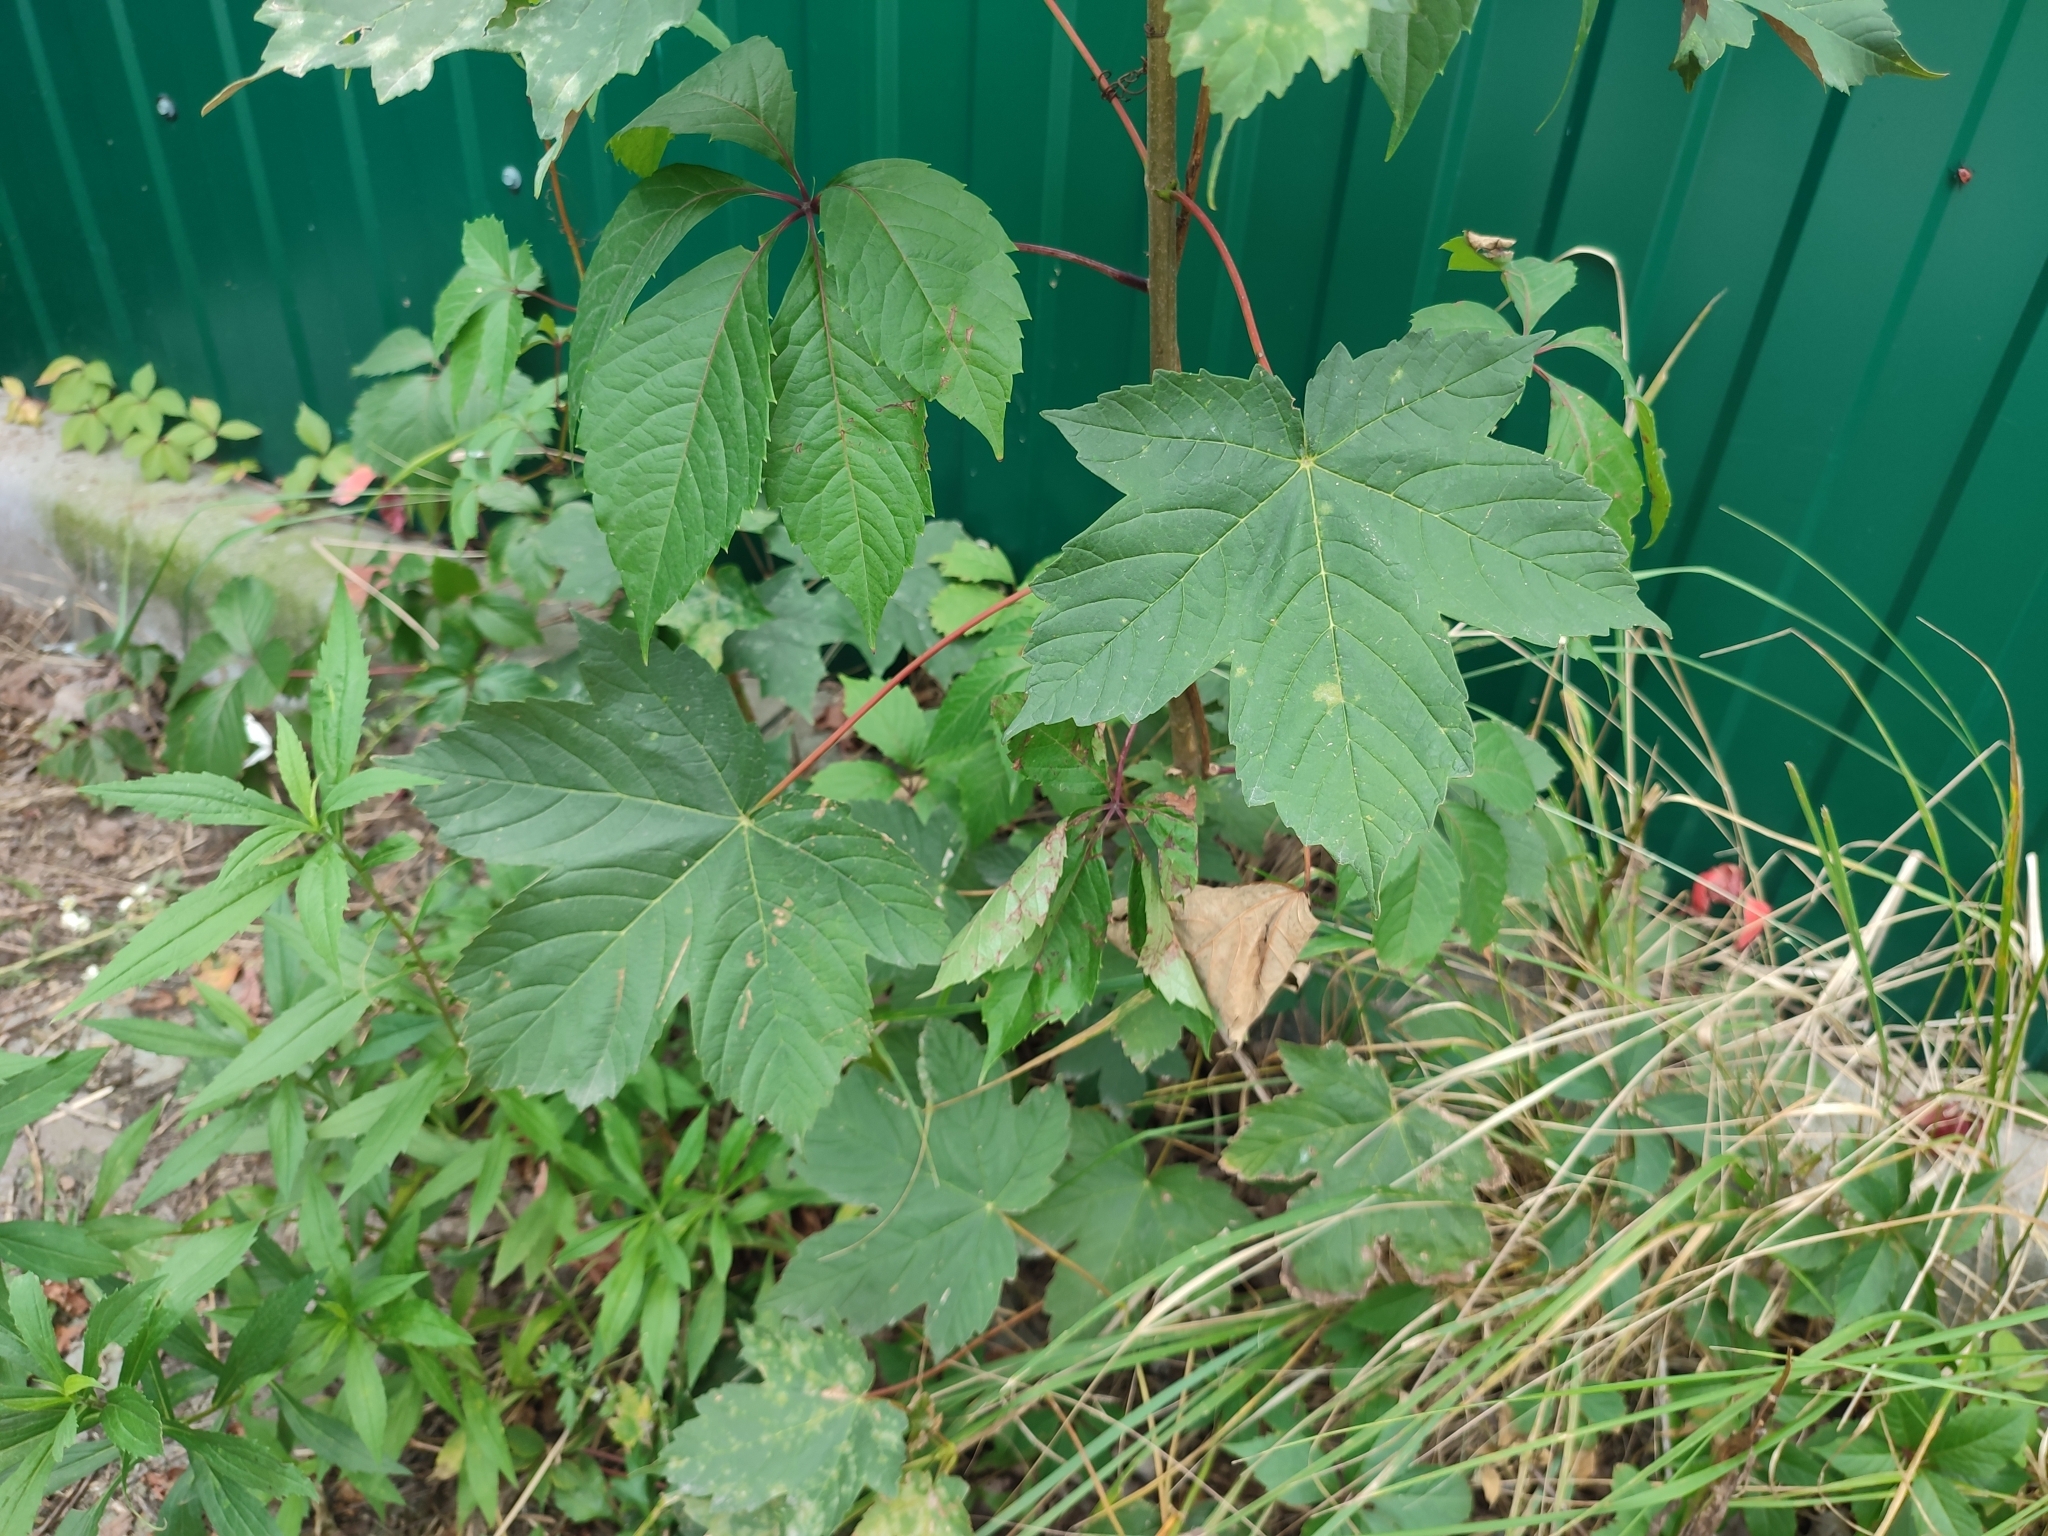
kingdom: Plantae
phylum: Tracheophyta
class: Magnoliopsida
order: Sapindales
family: Sapindaceae
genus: Acer
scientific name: Acer pseudoplatanus
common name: Sycamore
